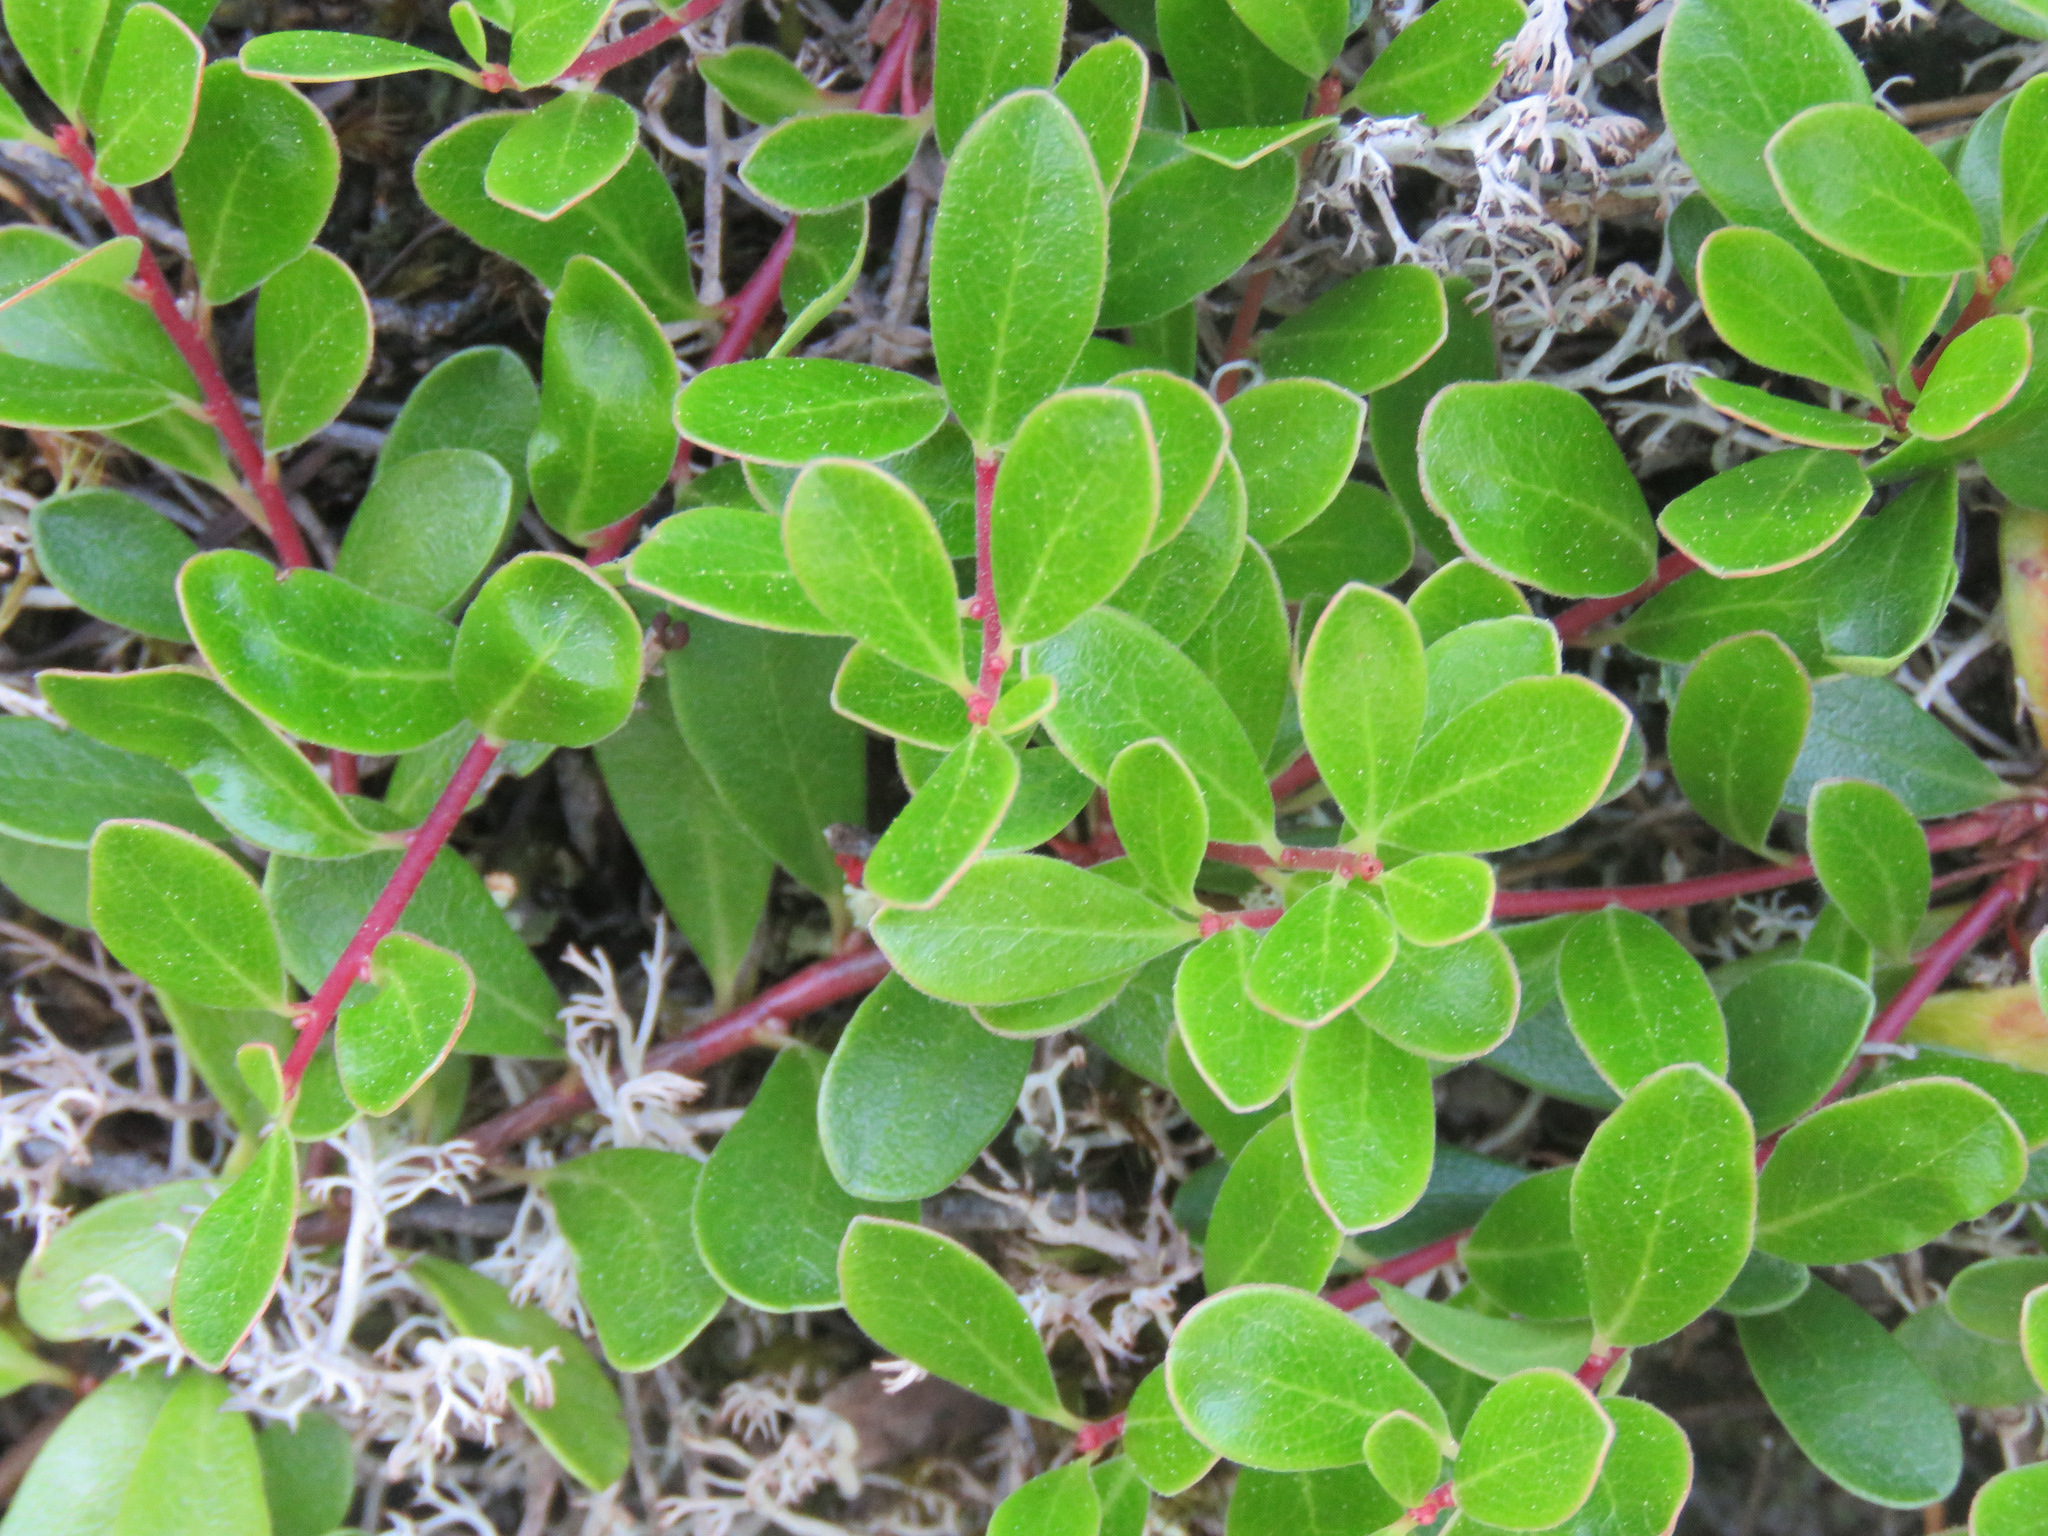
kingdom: Plantae
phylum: Tracheophyta
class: Magnoliopsida
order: Ericales
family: Ericaceae
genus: Arctostaphylos
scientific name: Arctostaphylos uva-ursi
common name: Bearberry
